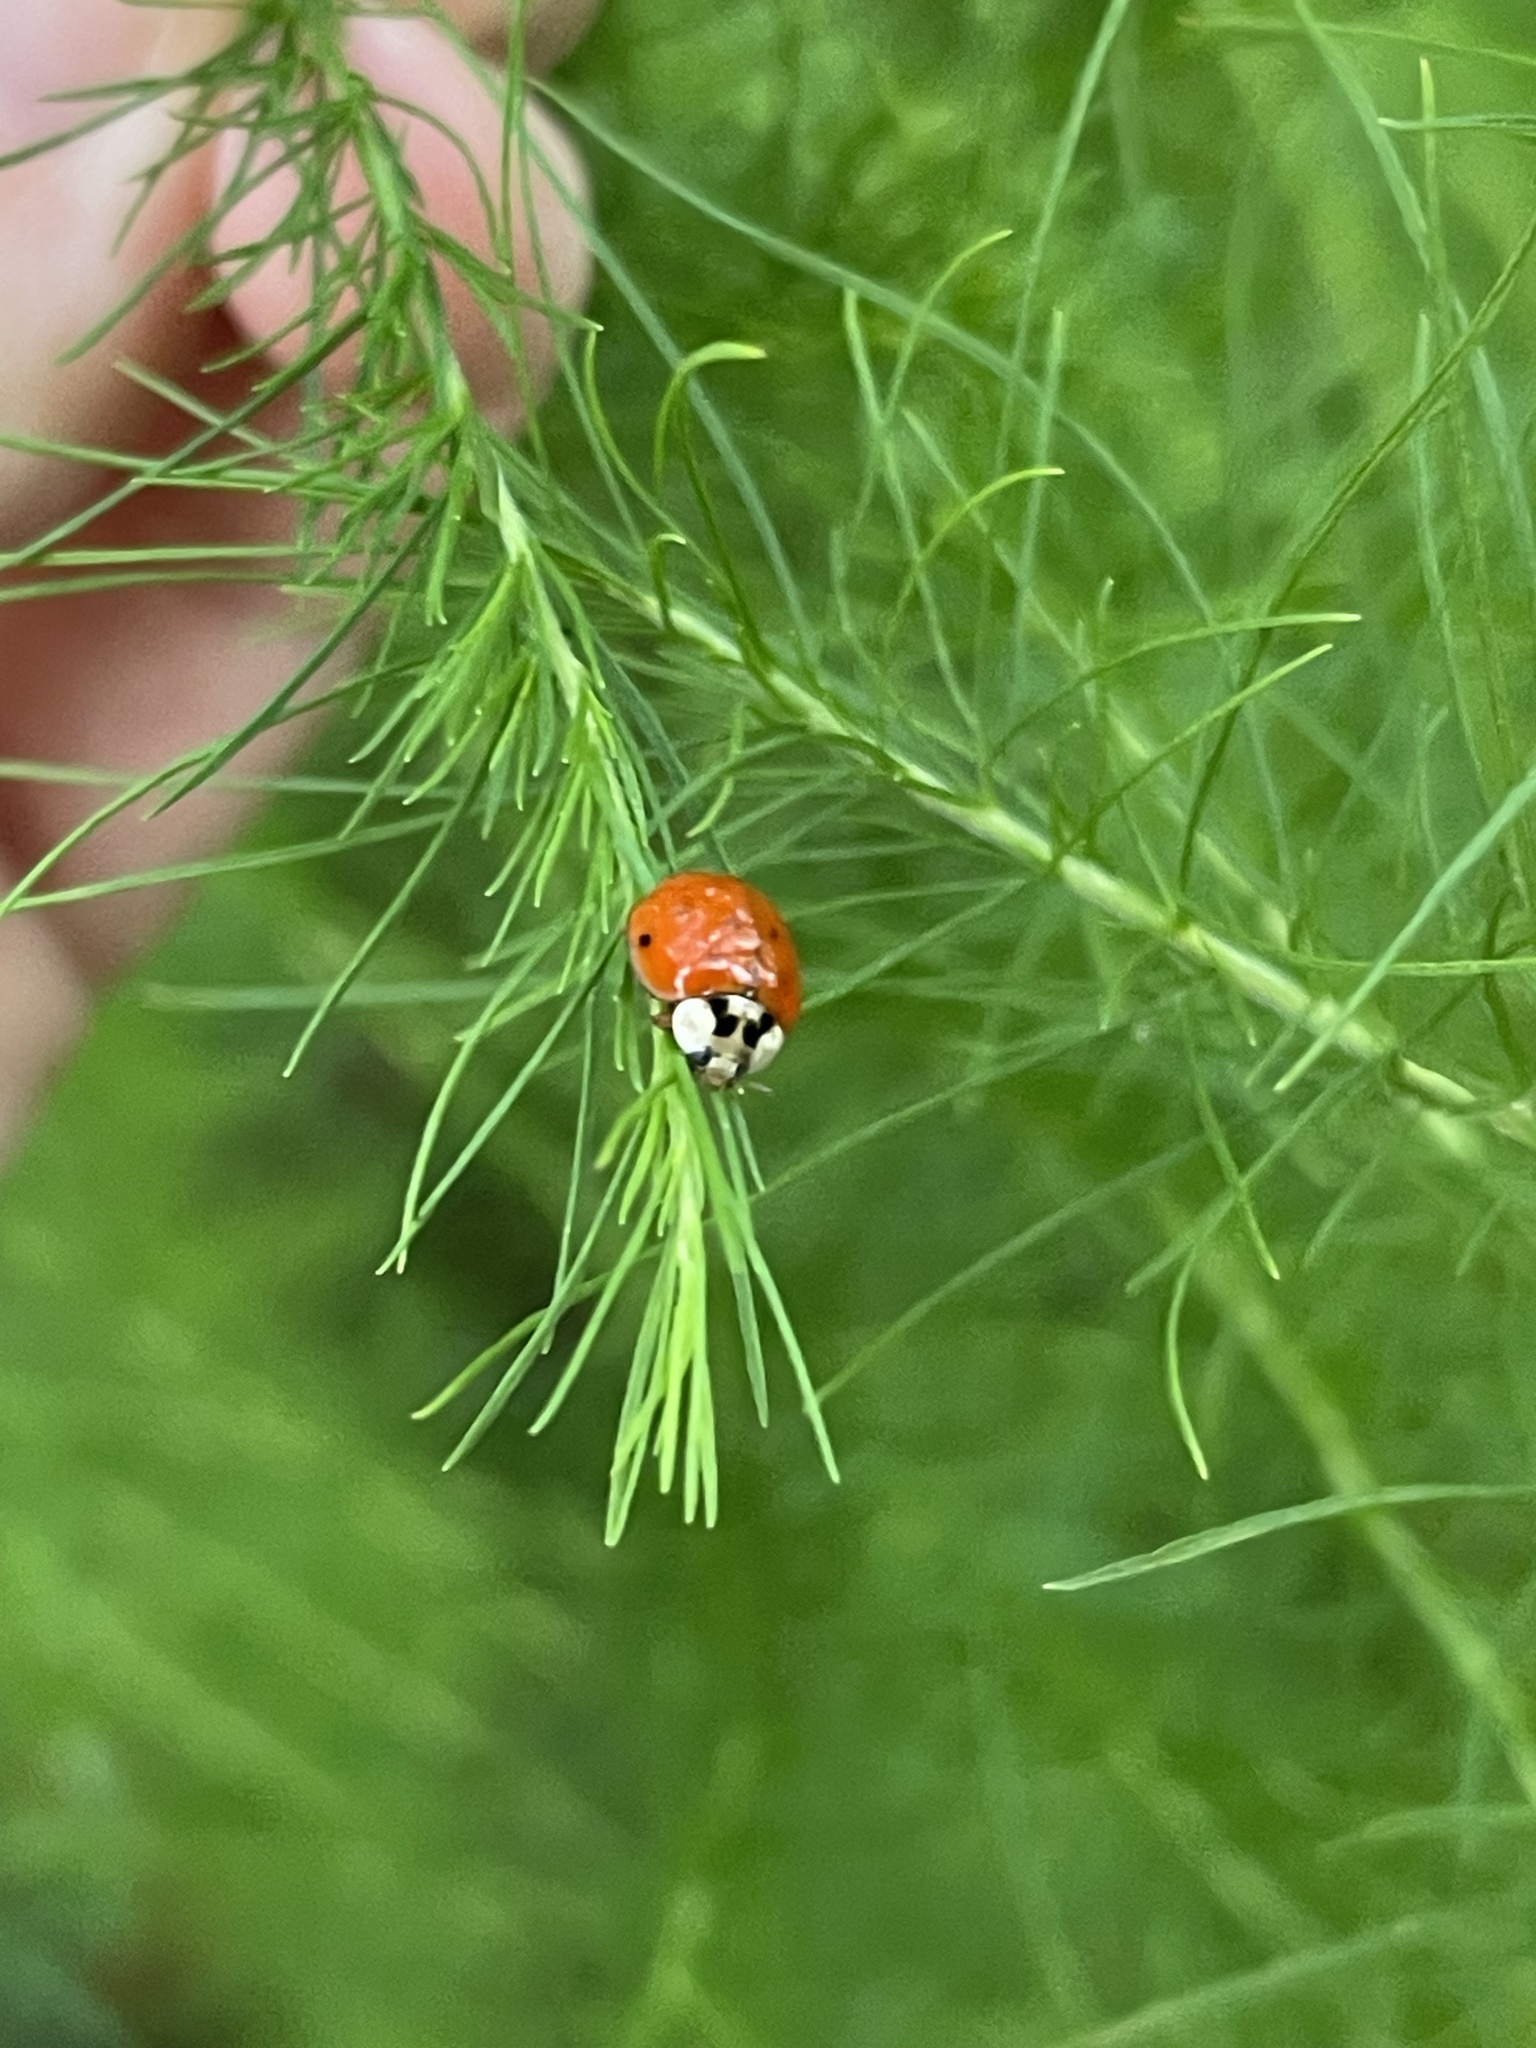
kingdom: Animalia
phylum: Arthropoda
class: Insecta
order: Coleoptera
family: Coccinellidae
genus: Harmonia
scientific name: Harmonia axyridis
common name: Harlequin ladybird
